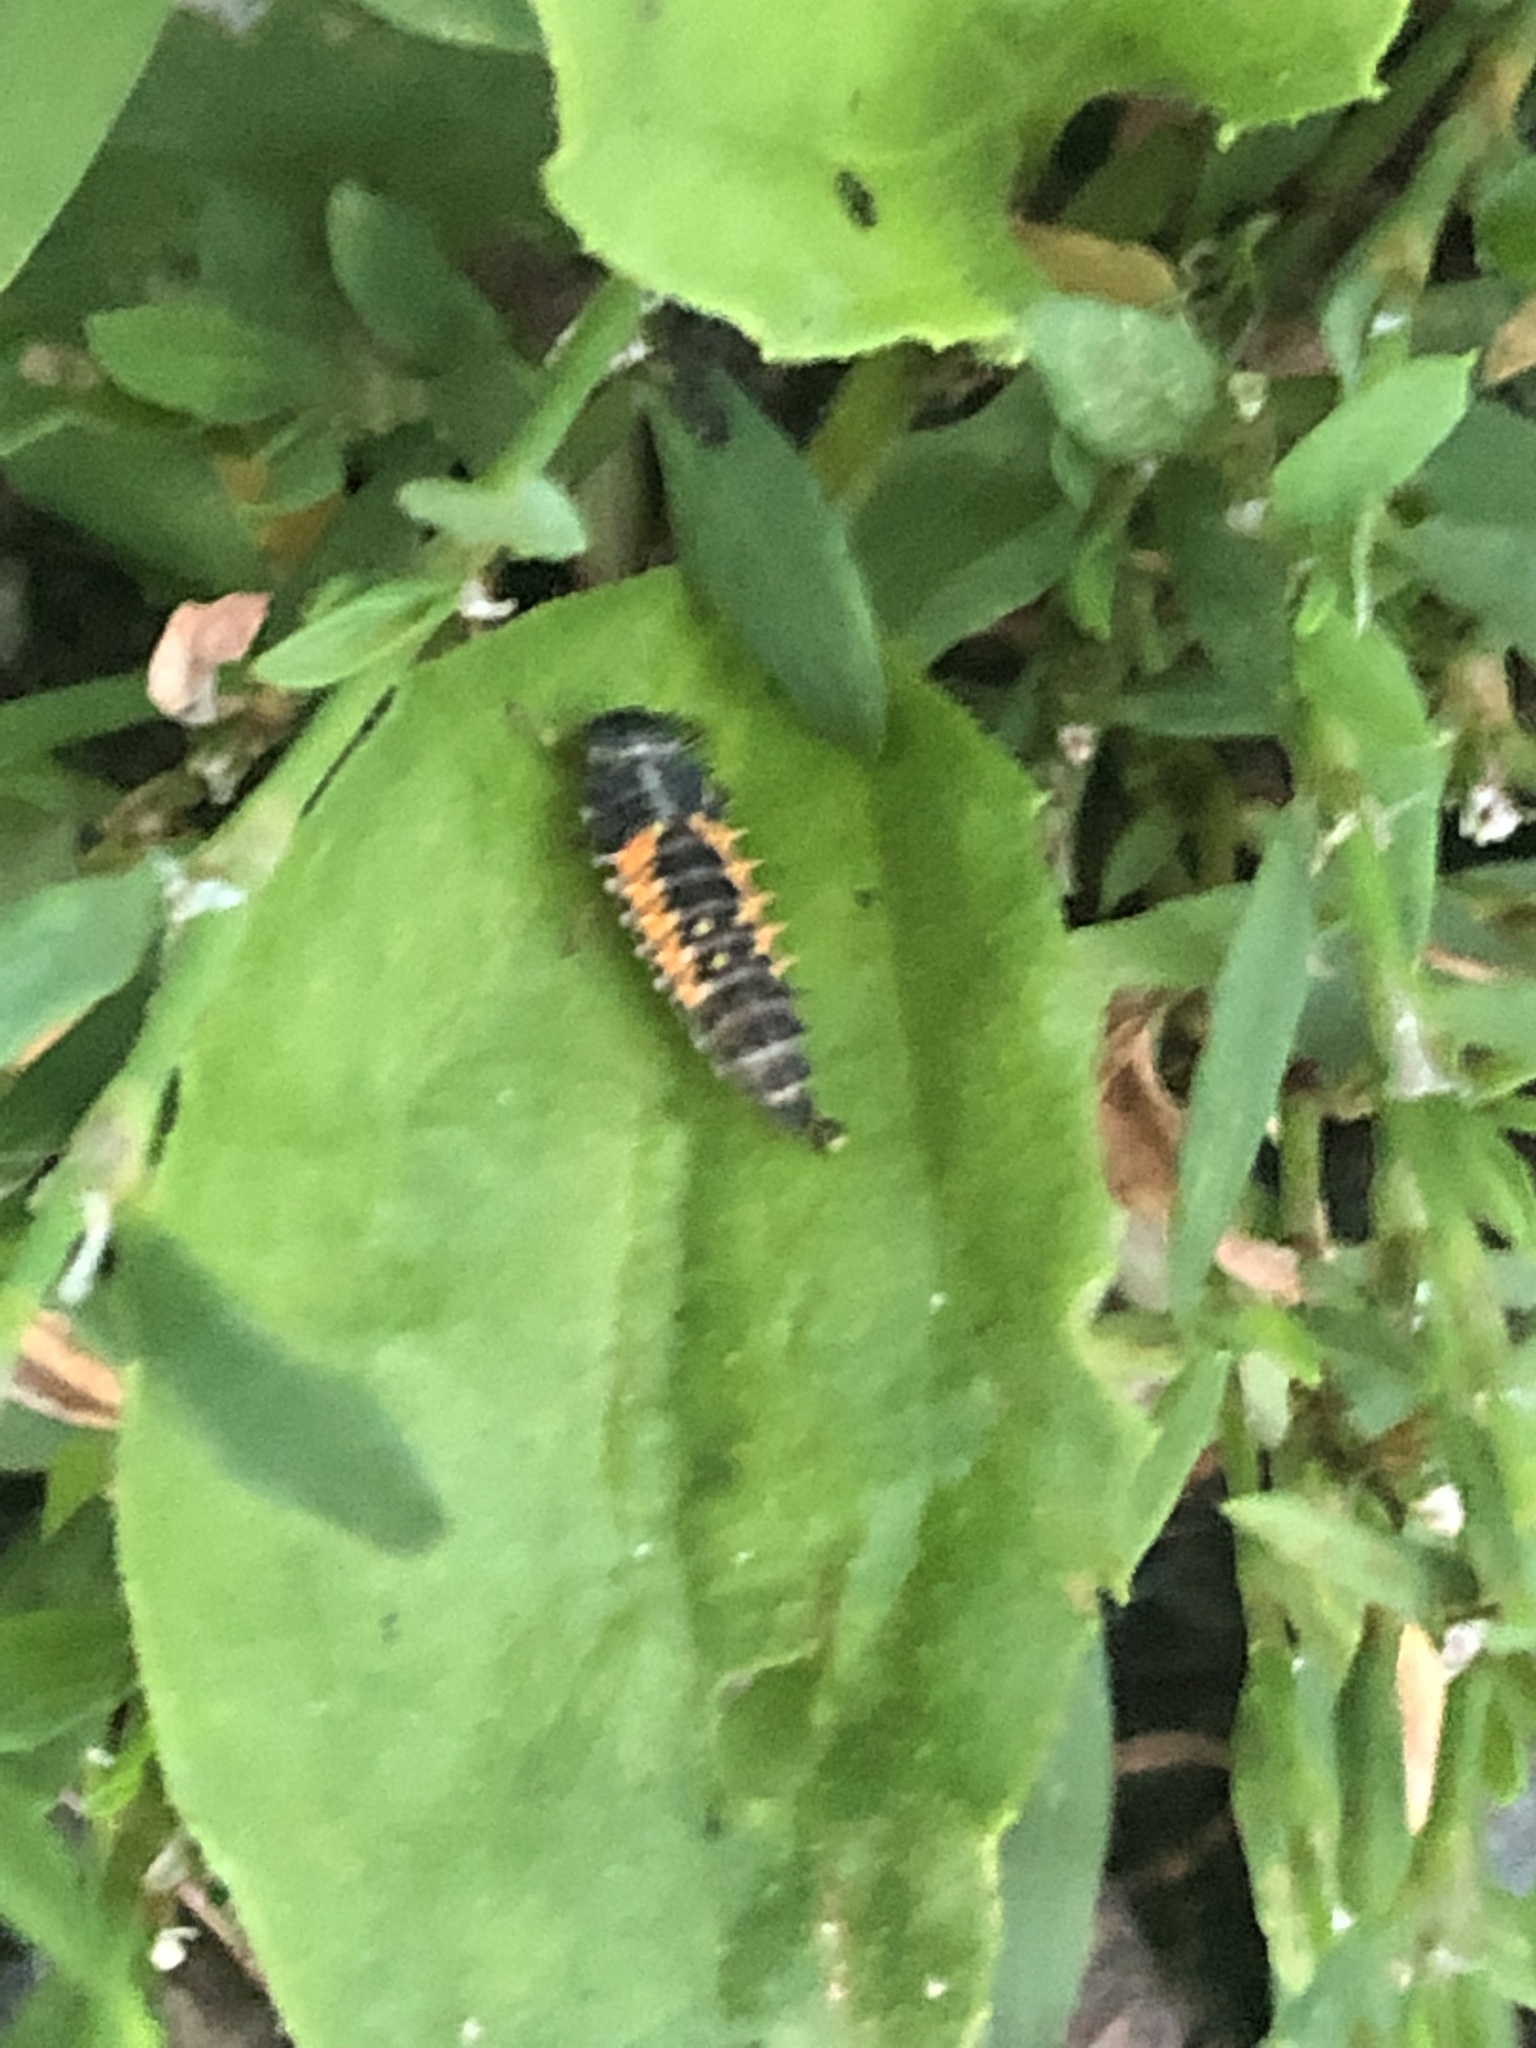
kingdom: Animalia
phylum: Arthropoda
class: Insecta
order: Coleoptera
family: Coccinellidae
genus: Harmonia
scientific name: Harmonia axyridis
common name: Harlequin ladybird
